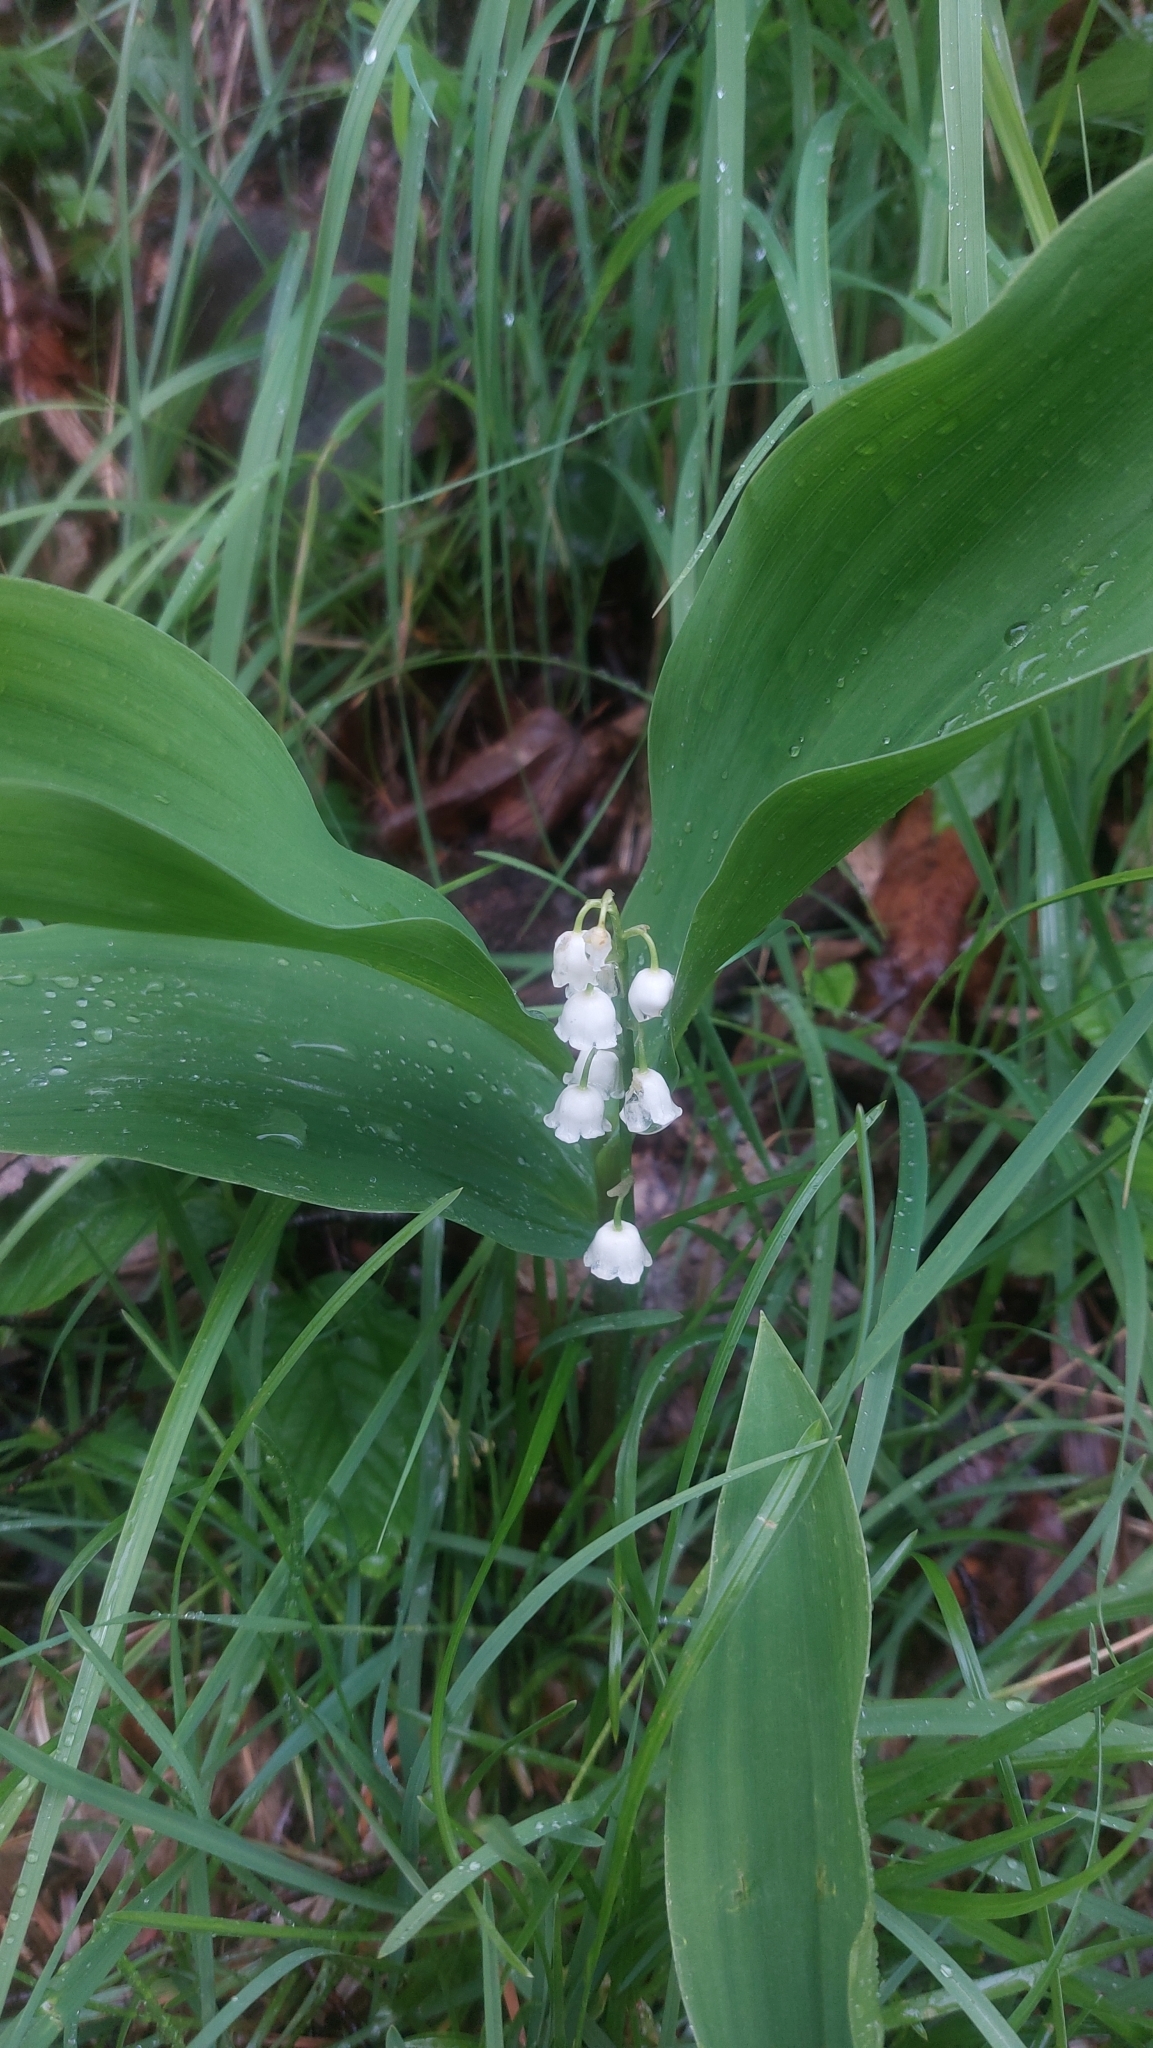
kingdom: Plantae
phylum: Tracheophyta
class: Liliopsida
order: Asparagales
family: Asparagaceae
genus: Convallaria
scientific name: Convallaria majalis
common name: Lily-of-the-valley
